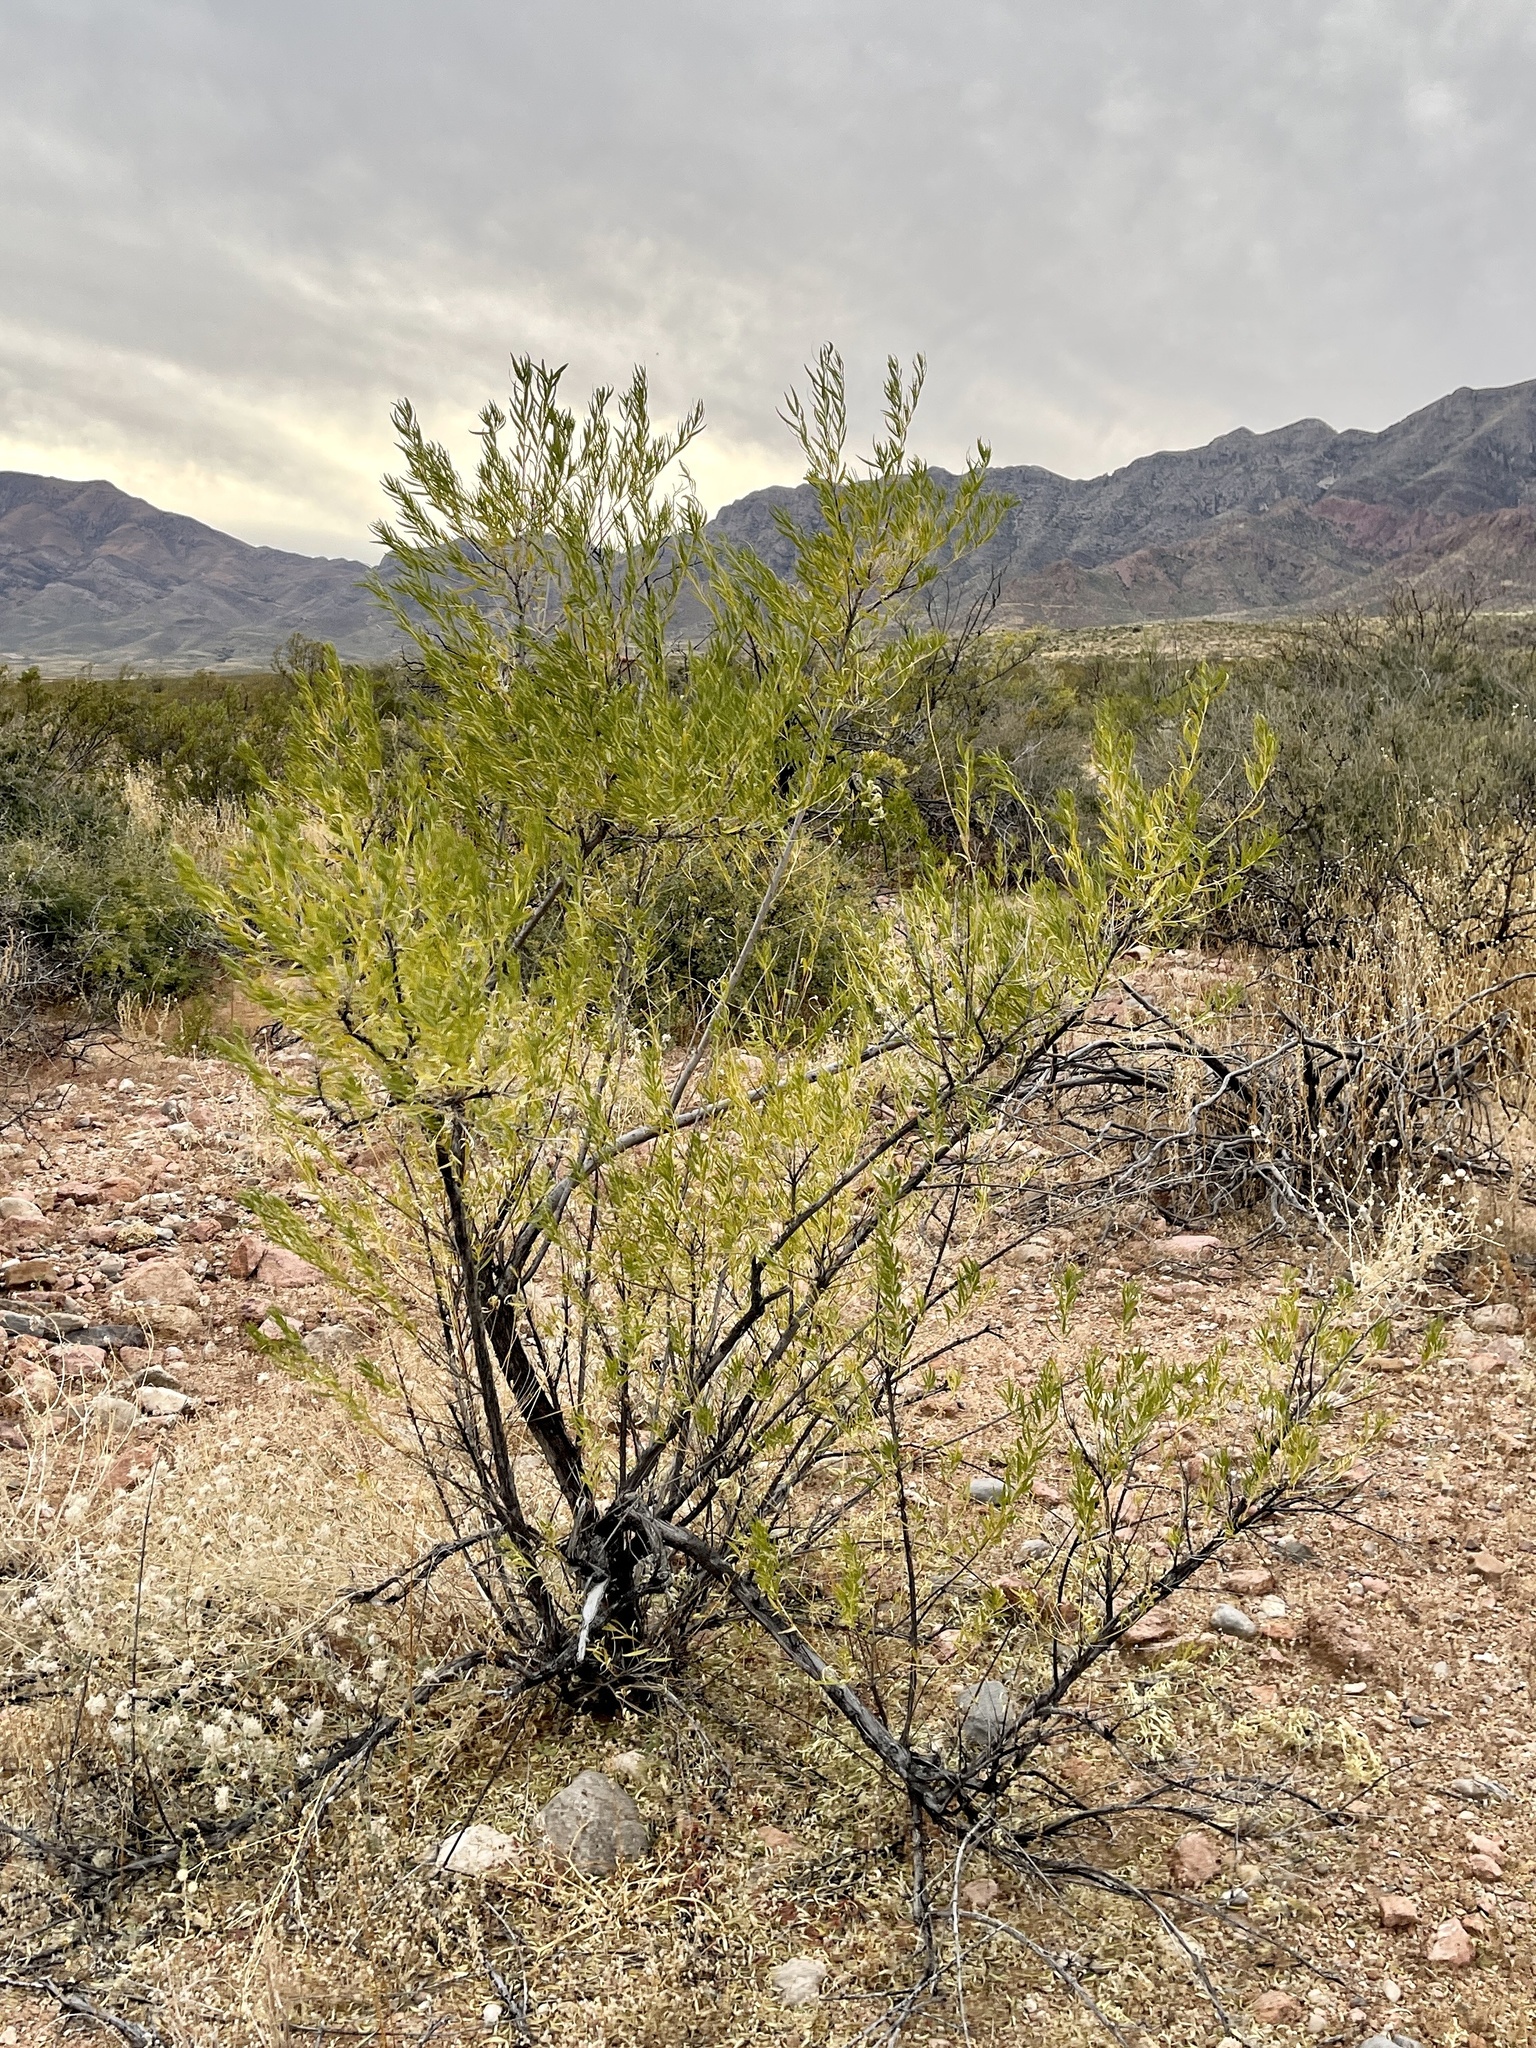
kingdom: Plantae
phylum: Tracheophyta
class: Magnoliopsida
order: Lamiales
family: Bignoniaceae
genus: Chilopsis
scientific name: Chilopsis linearis
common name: Desert-willow
